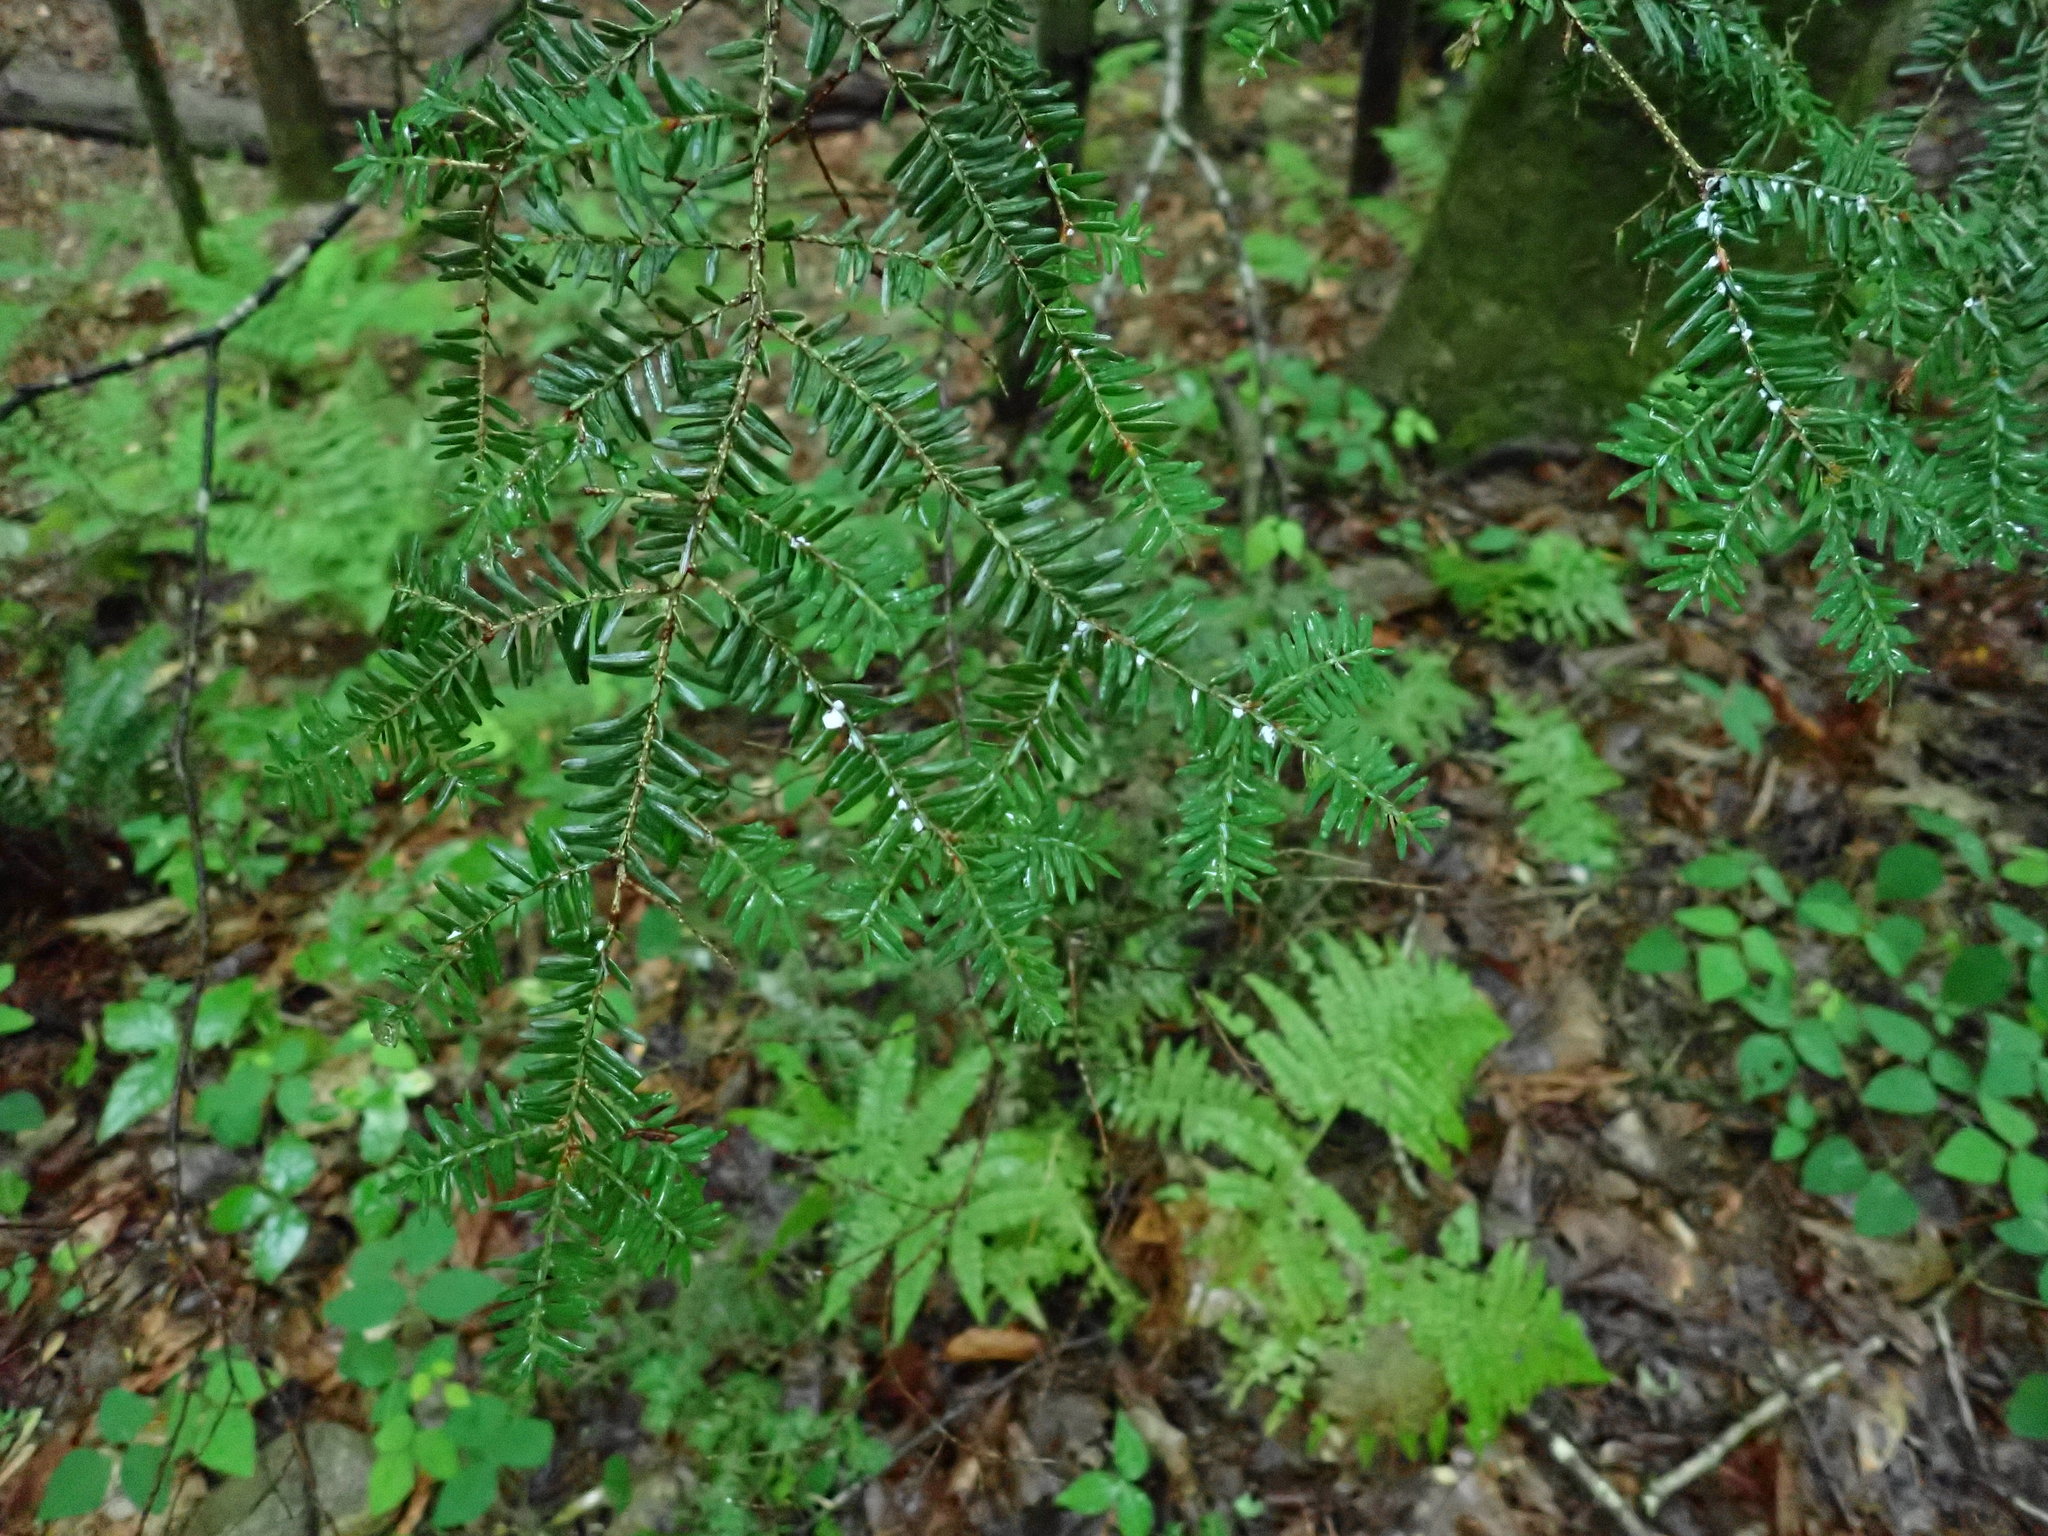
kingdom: Animalia
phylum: Arthropoda
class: Insecta
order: Hemiptera
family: Adelgidae
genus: Adelges
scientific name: Adelges tsugae
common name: Hemlock woolly adelgid
